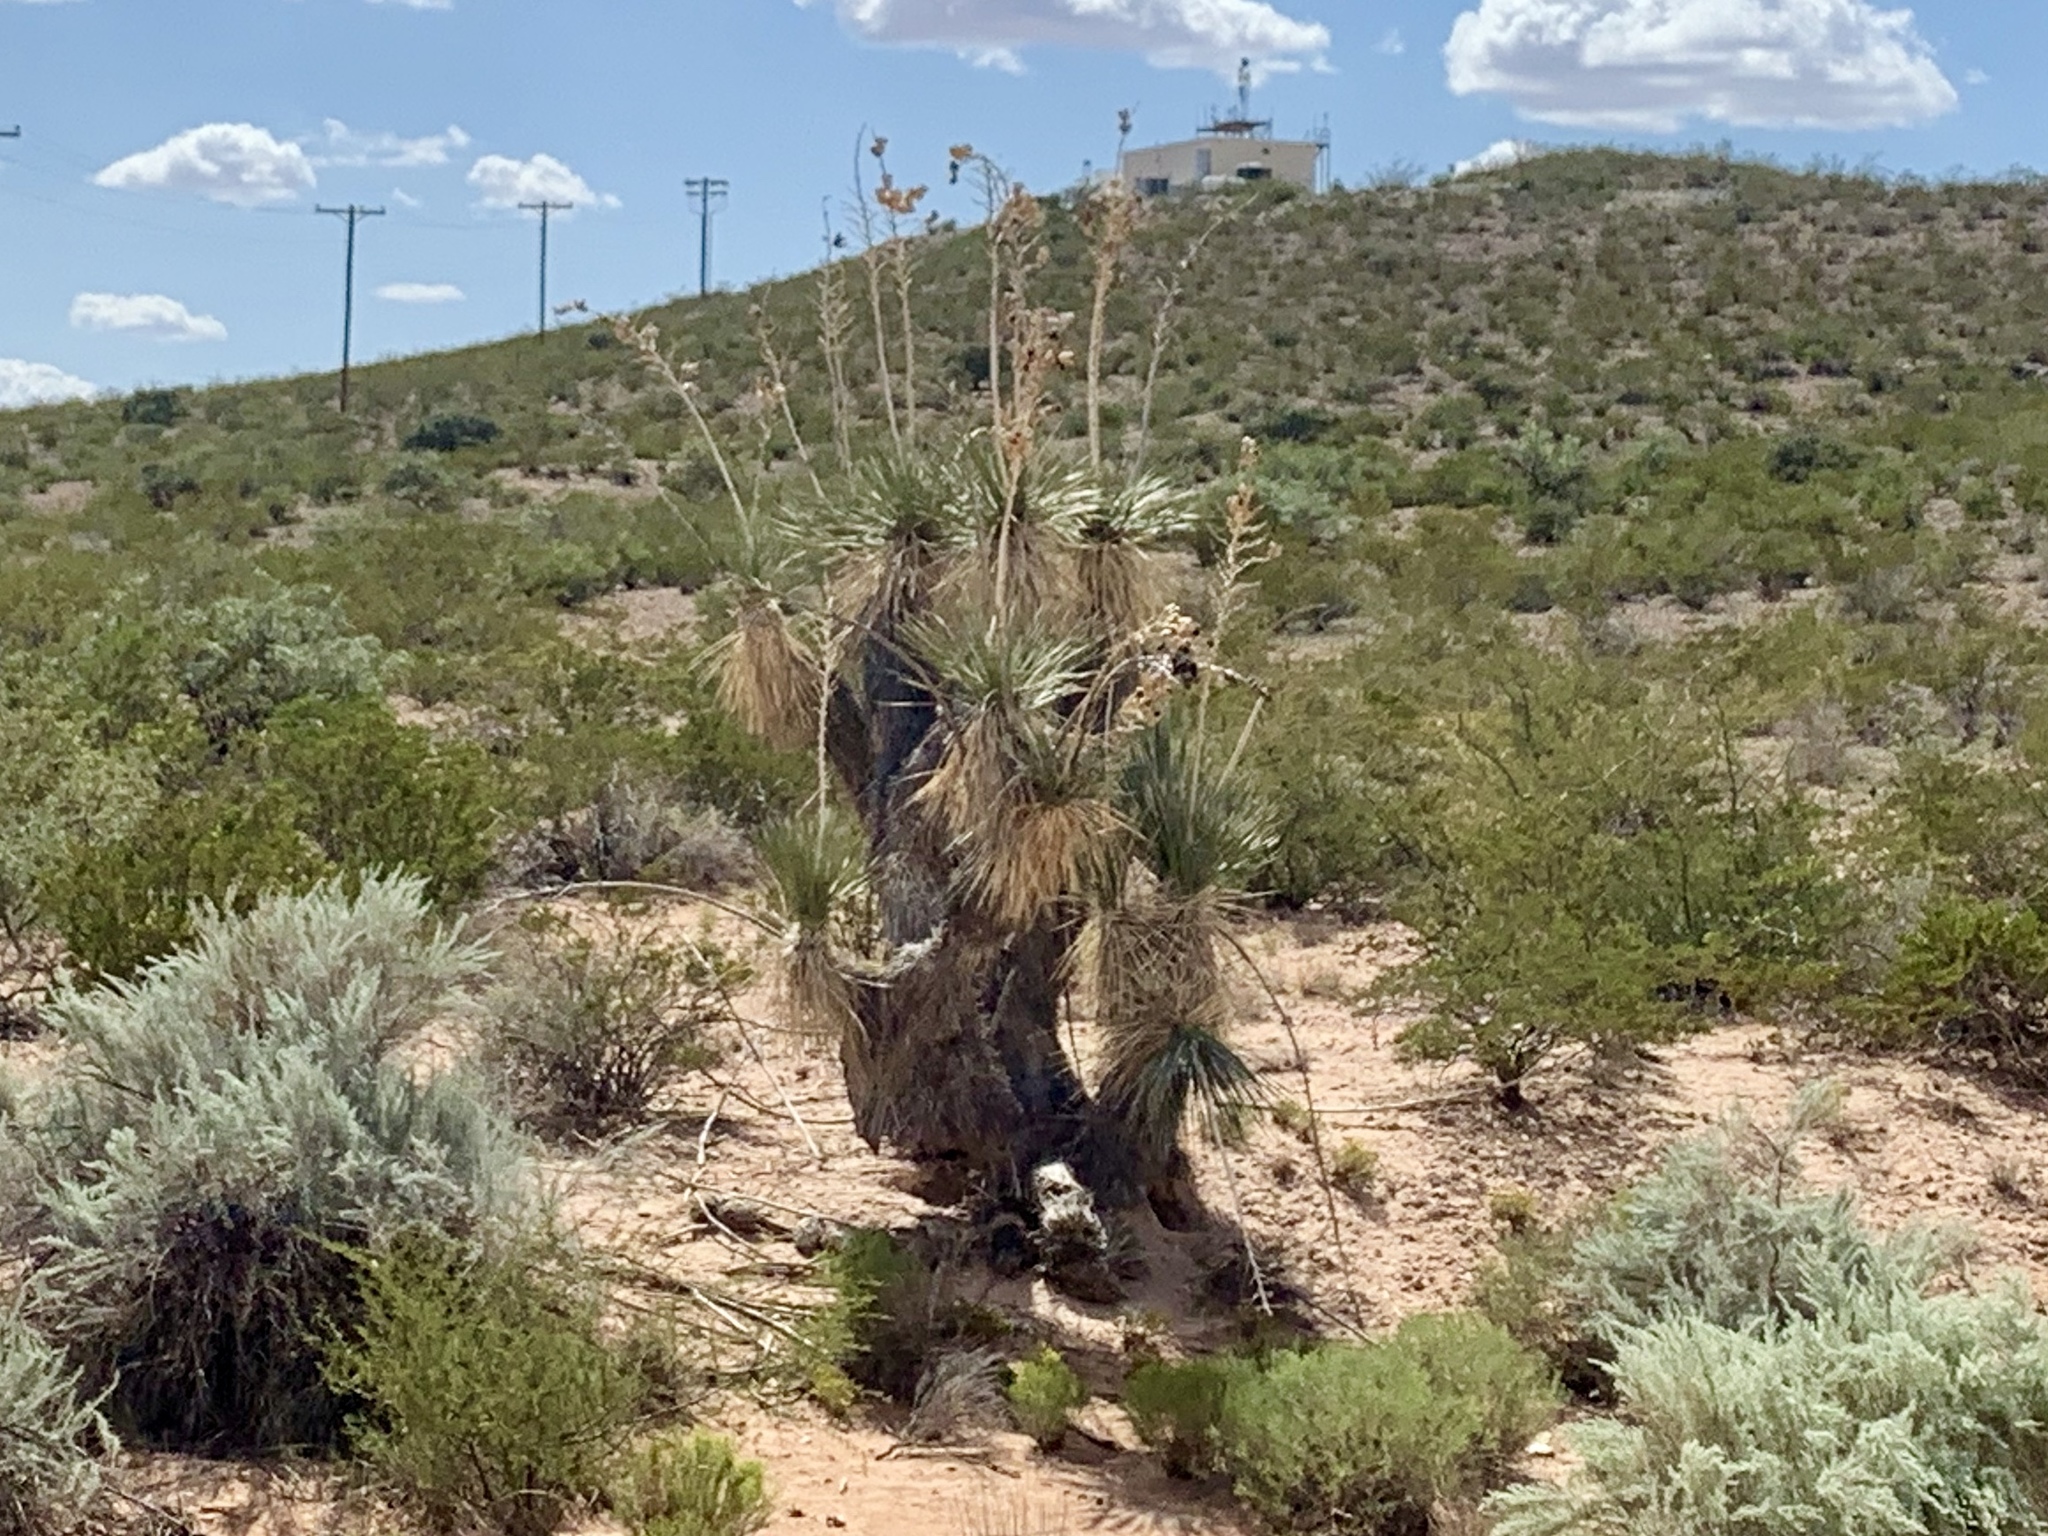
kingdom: Plantae
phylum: Tracheophyta
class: Liliopsida
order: Asparagales
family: Asparagaceae
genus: Yucca
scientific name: Yucca elata
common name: Palmella
